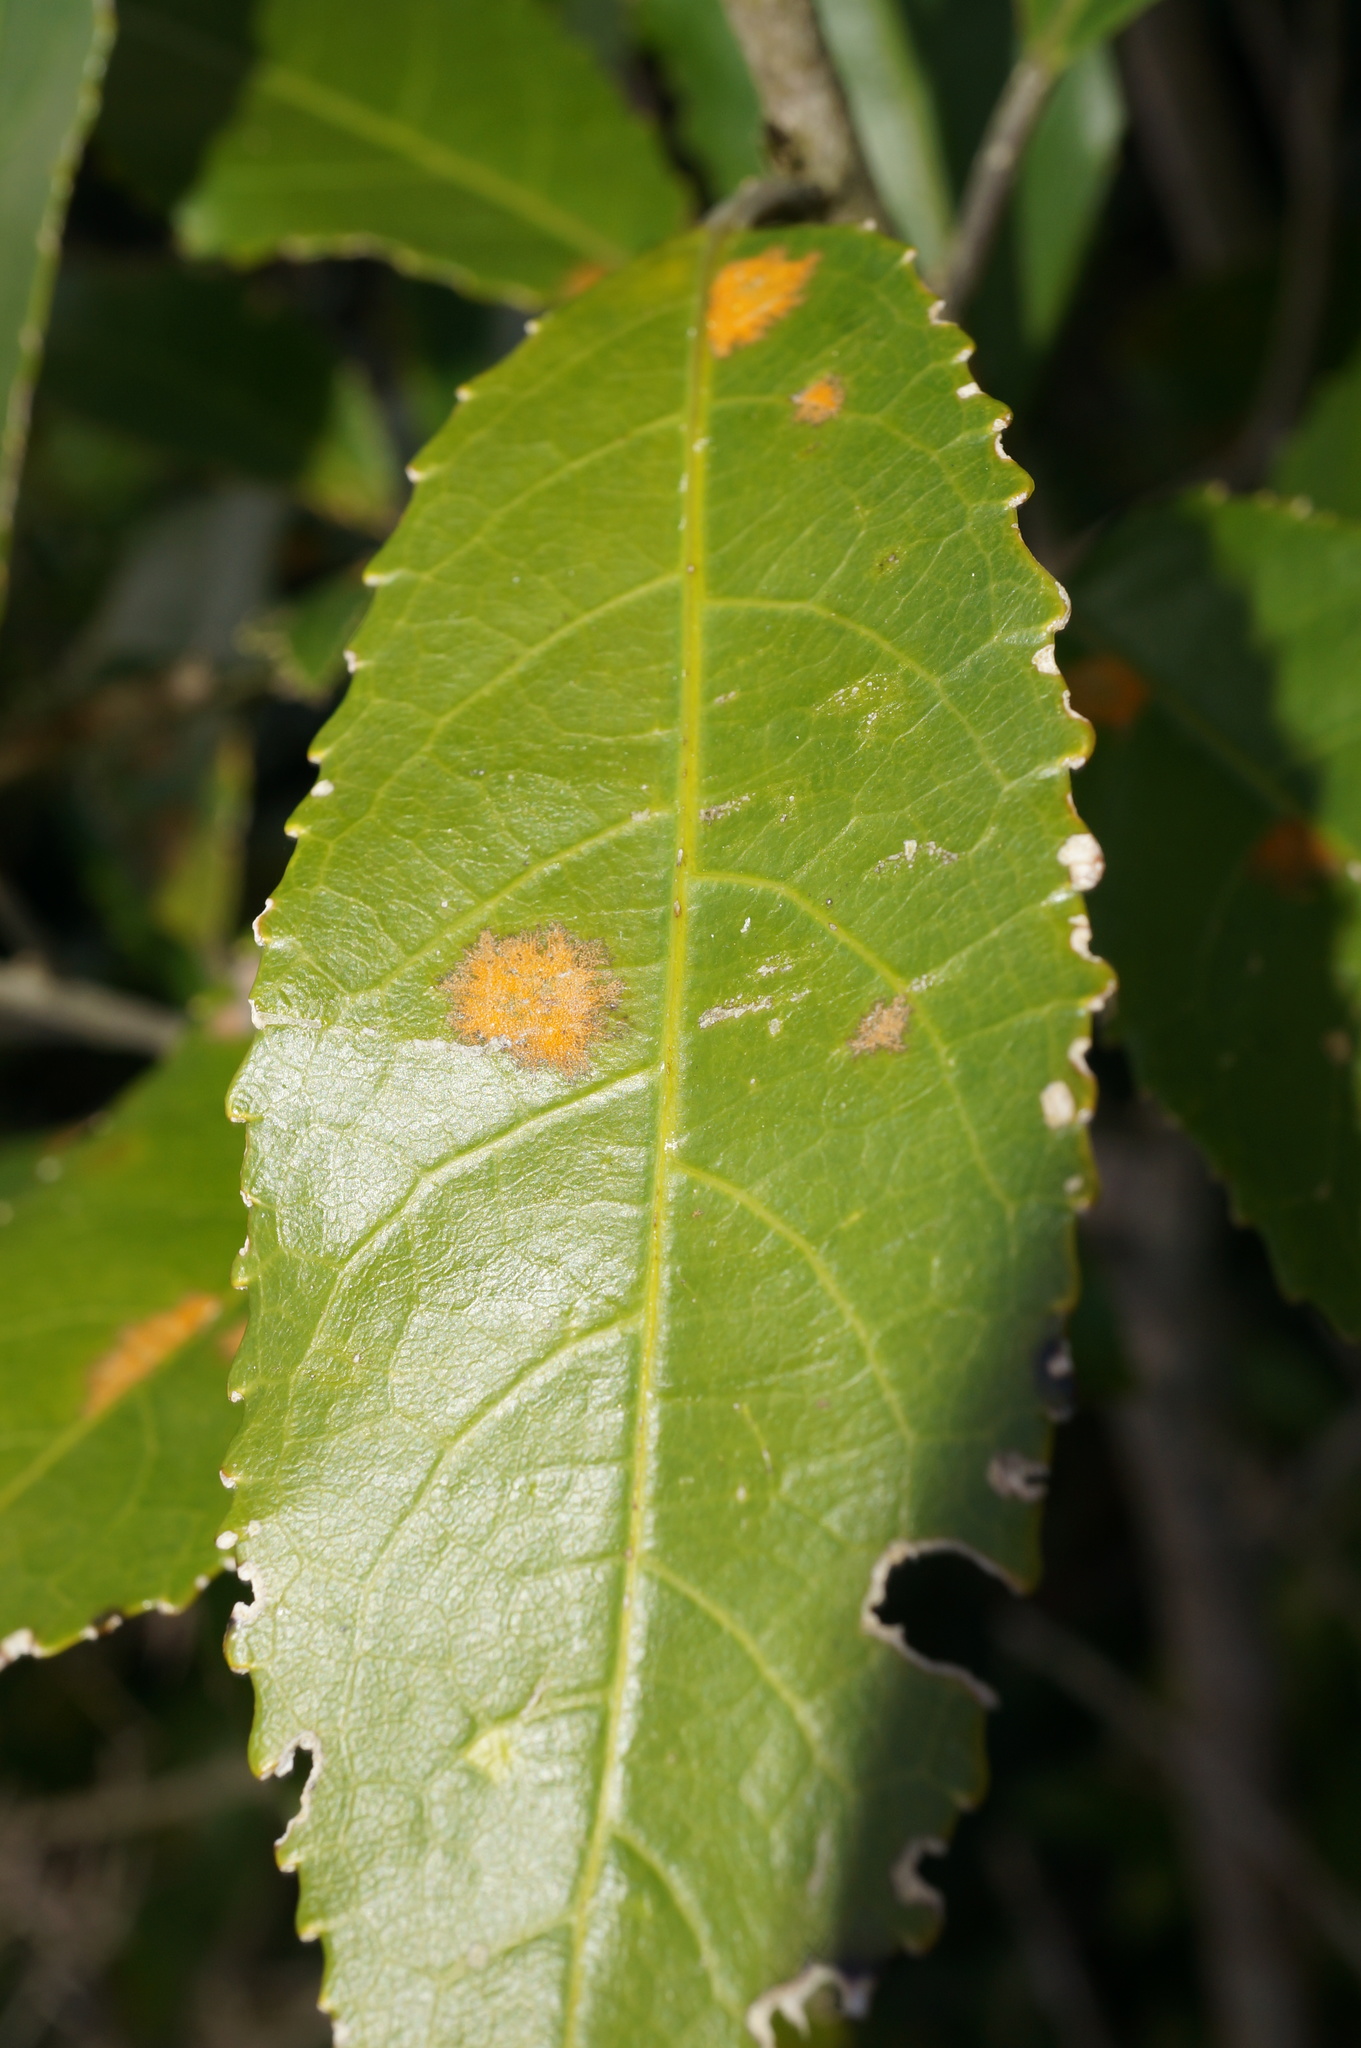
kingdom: Plantae
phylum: Chlorophyta
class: Ulvophyceae
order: Trentepohliales
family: Trentepohliaceae
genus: Cephaleuros
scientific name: Cephaleuros
